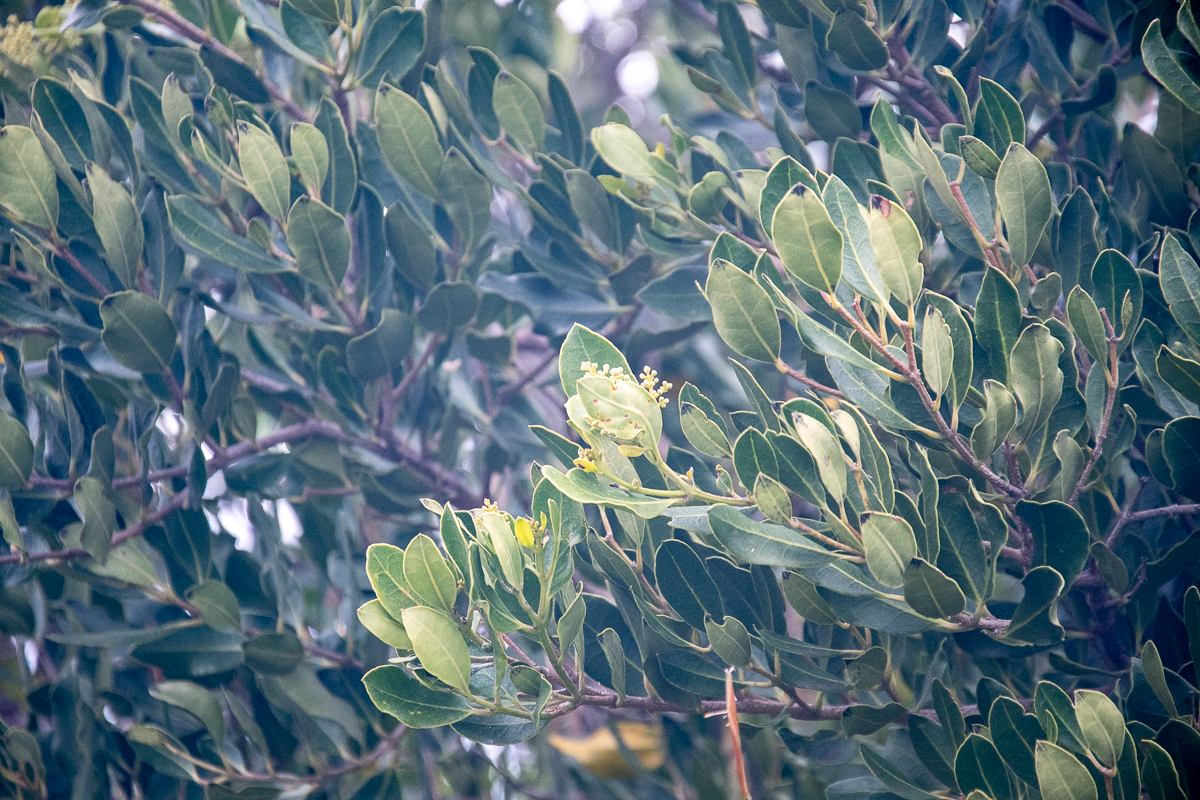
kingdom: Plantae
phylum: Tracheophyta
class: Magnoliopsida
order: Lamiales
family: Oleaceae
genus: Olea
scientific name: Olea capensis
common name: Black ironwood
